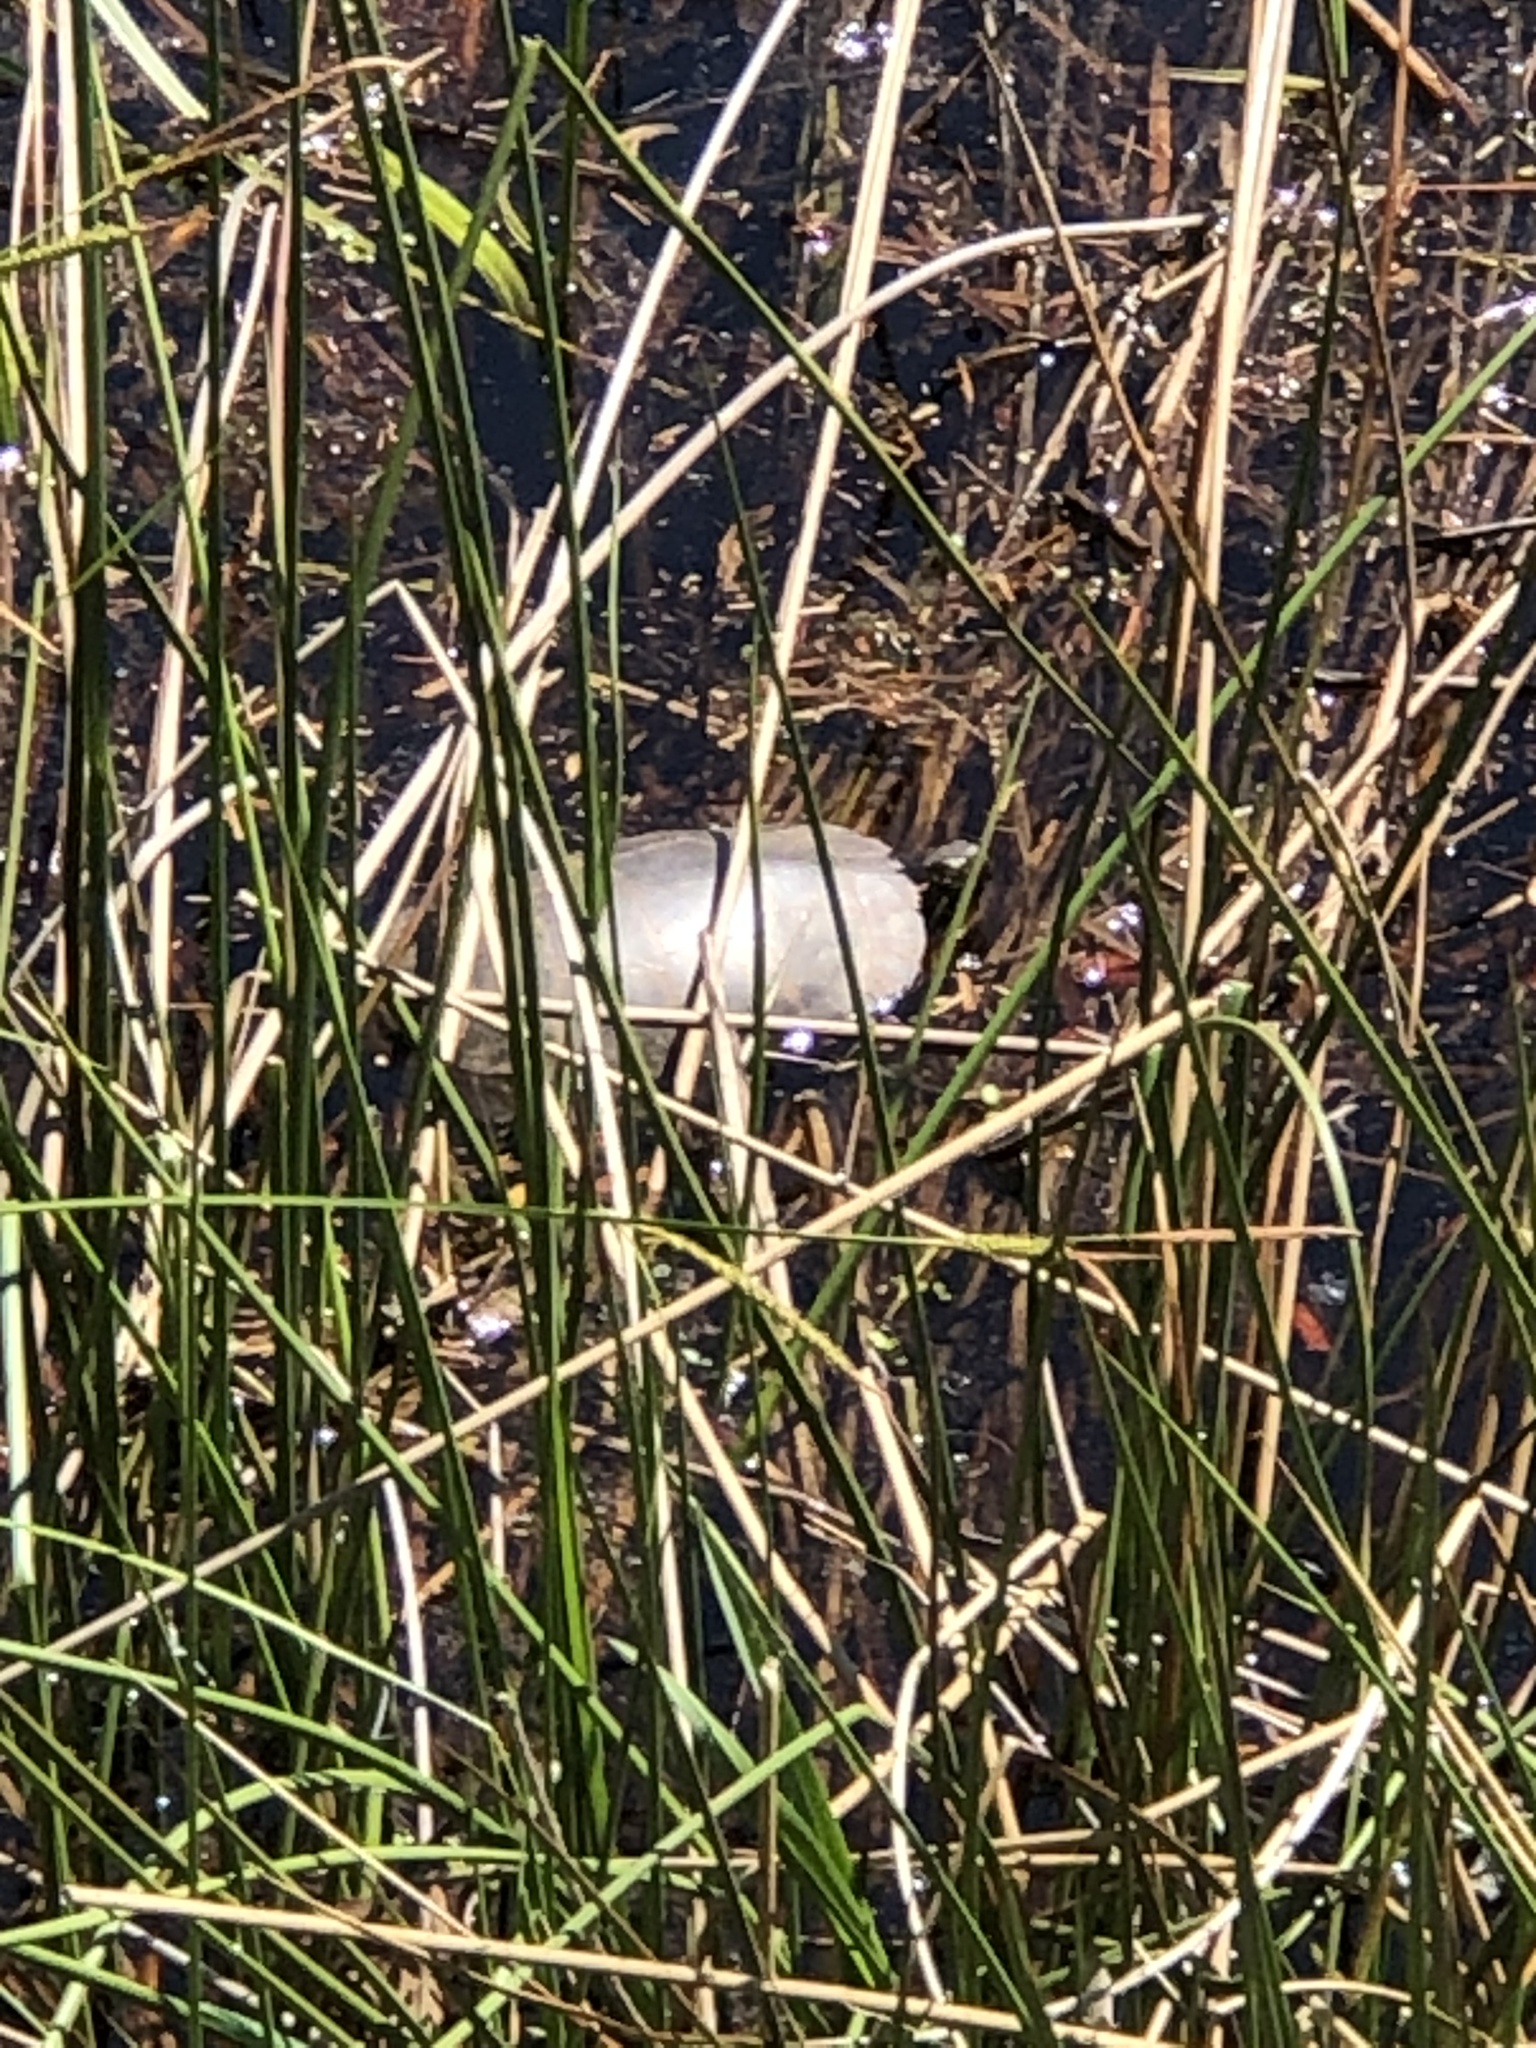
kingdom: Animalia
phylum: Chordata
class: Testudines
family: Emydidae
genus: Chrysemys
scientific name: Chrysemys picta
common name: Painted turtle
